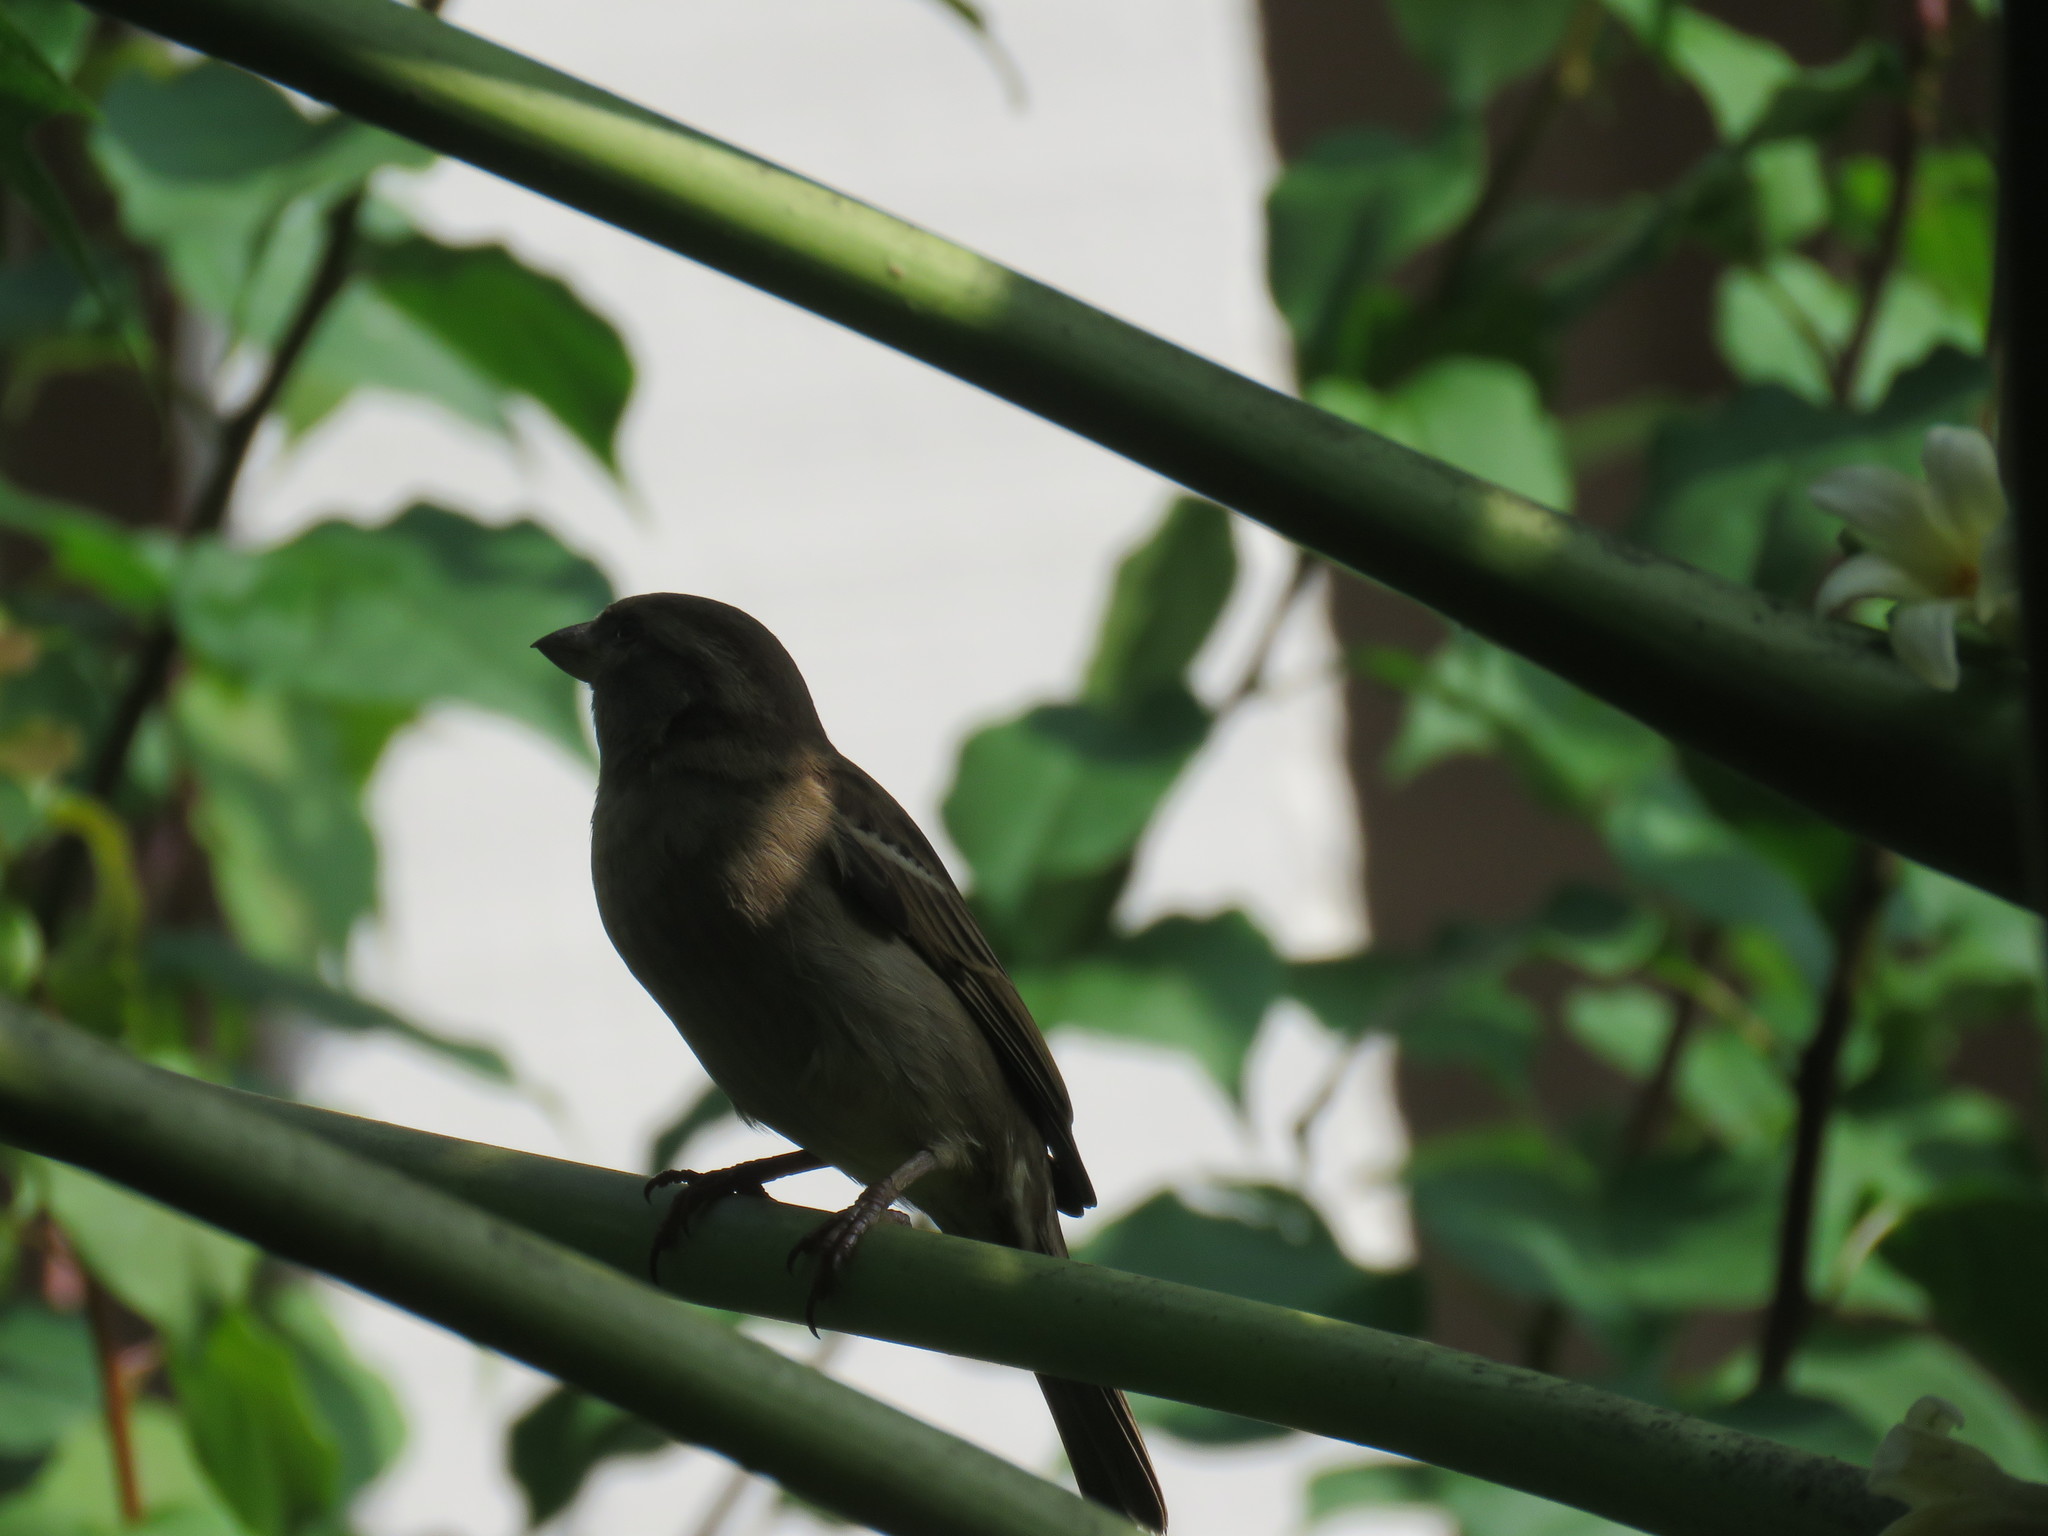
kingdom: Animalia
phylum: Chordata
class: Aves
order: Passeriformes
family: Passeridae
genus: Passer
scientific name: Passer domesticus
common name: House sparrow
